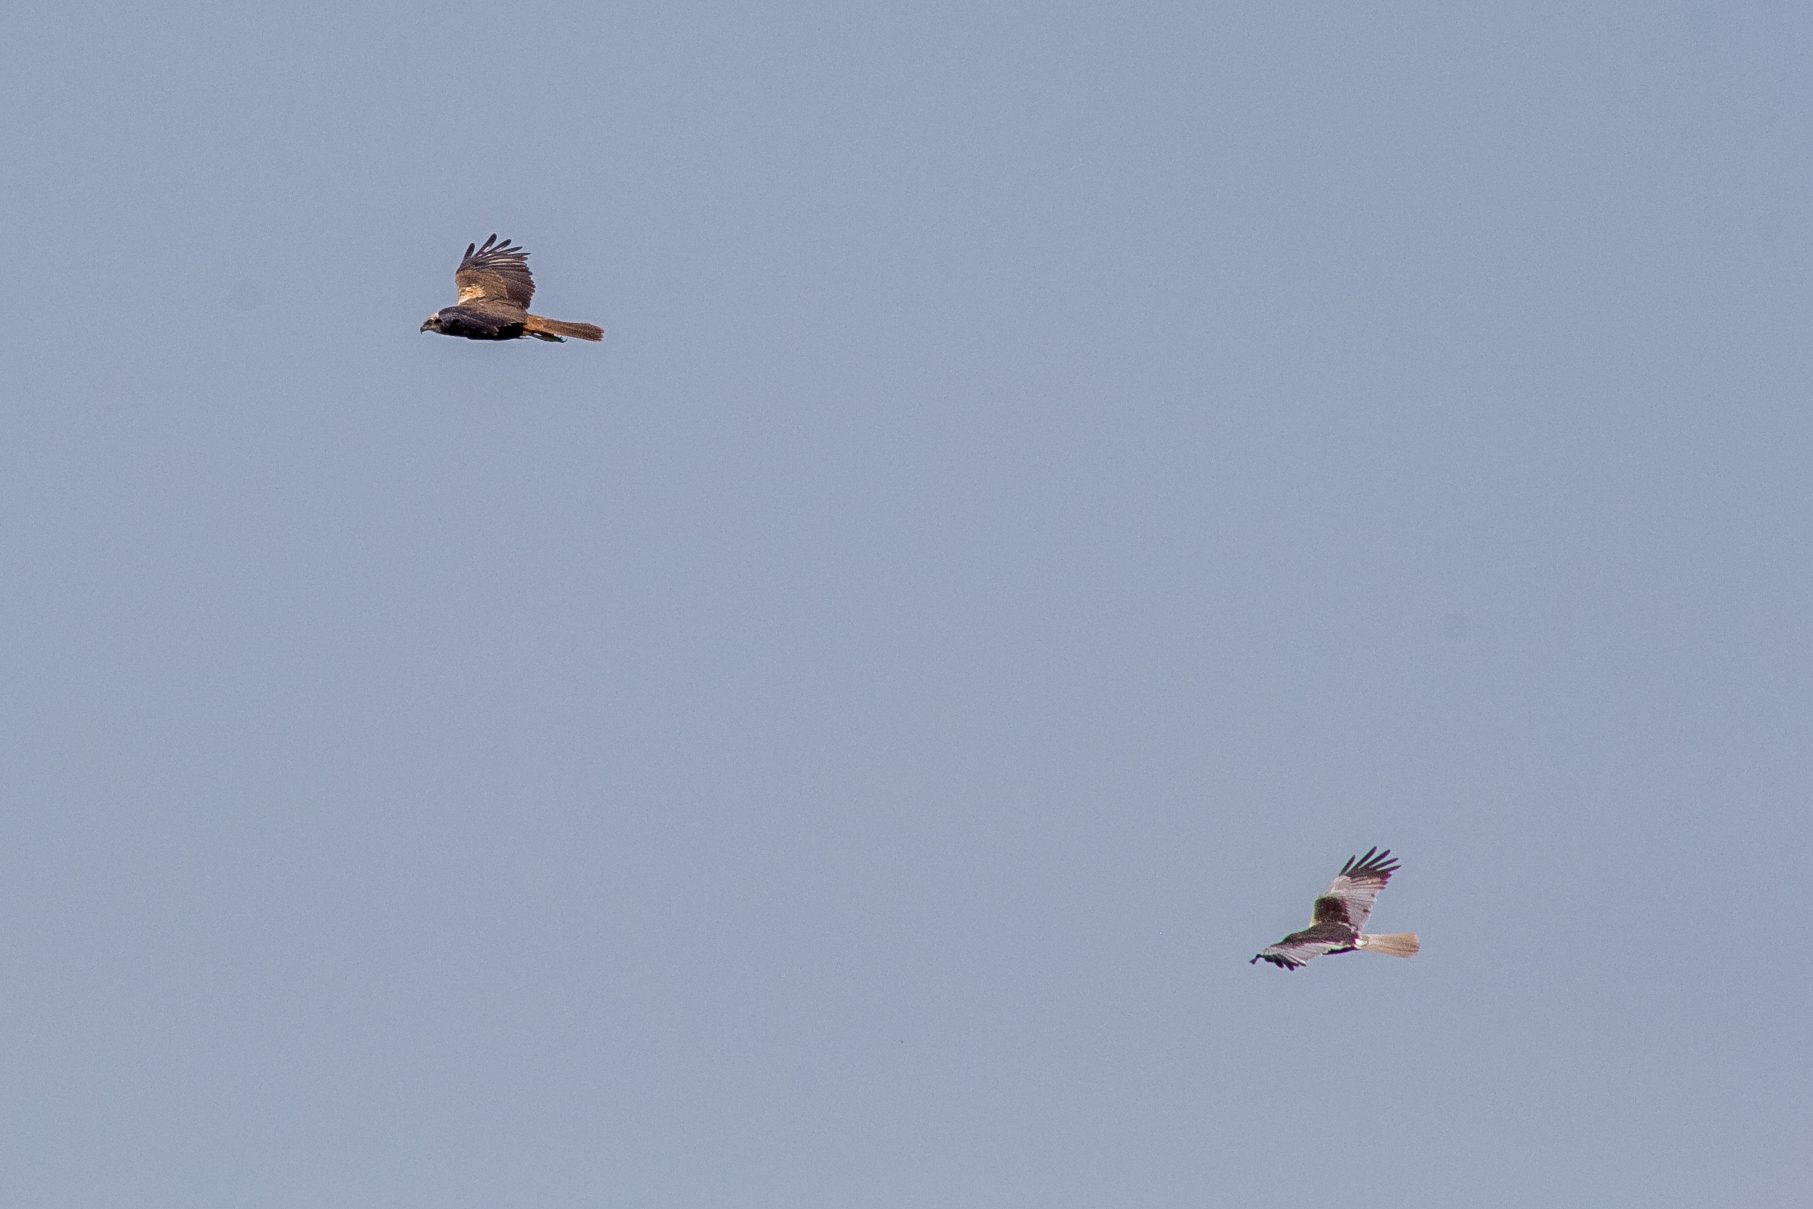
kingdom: Animalia
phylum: Chordata
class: Aves
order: Accipitriformes
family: Accipitridae
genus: Circus
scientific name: Circus aeruginosus
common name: Western marsh harrier
